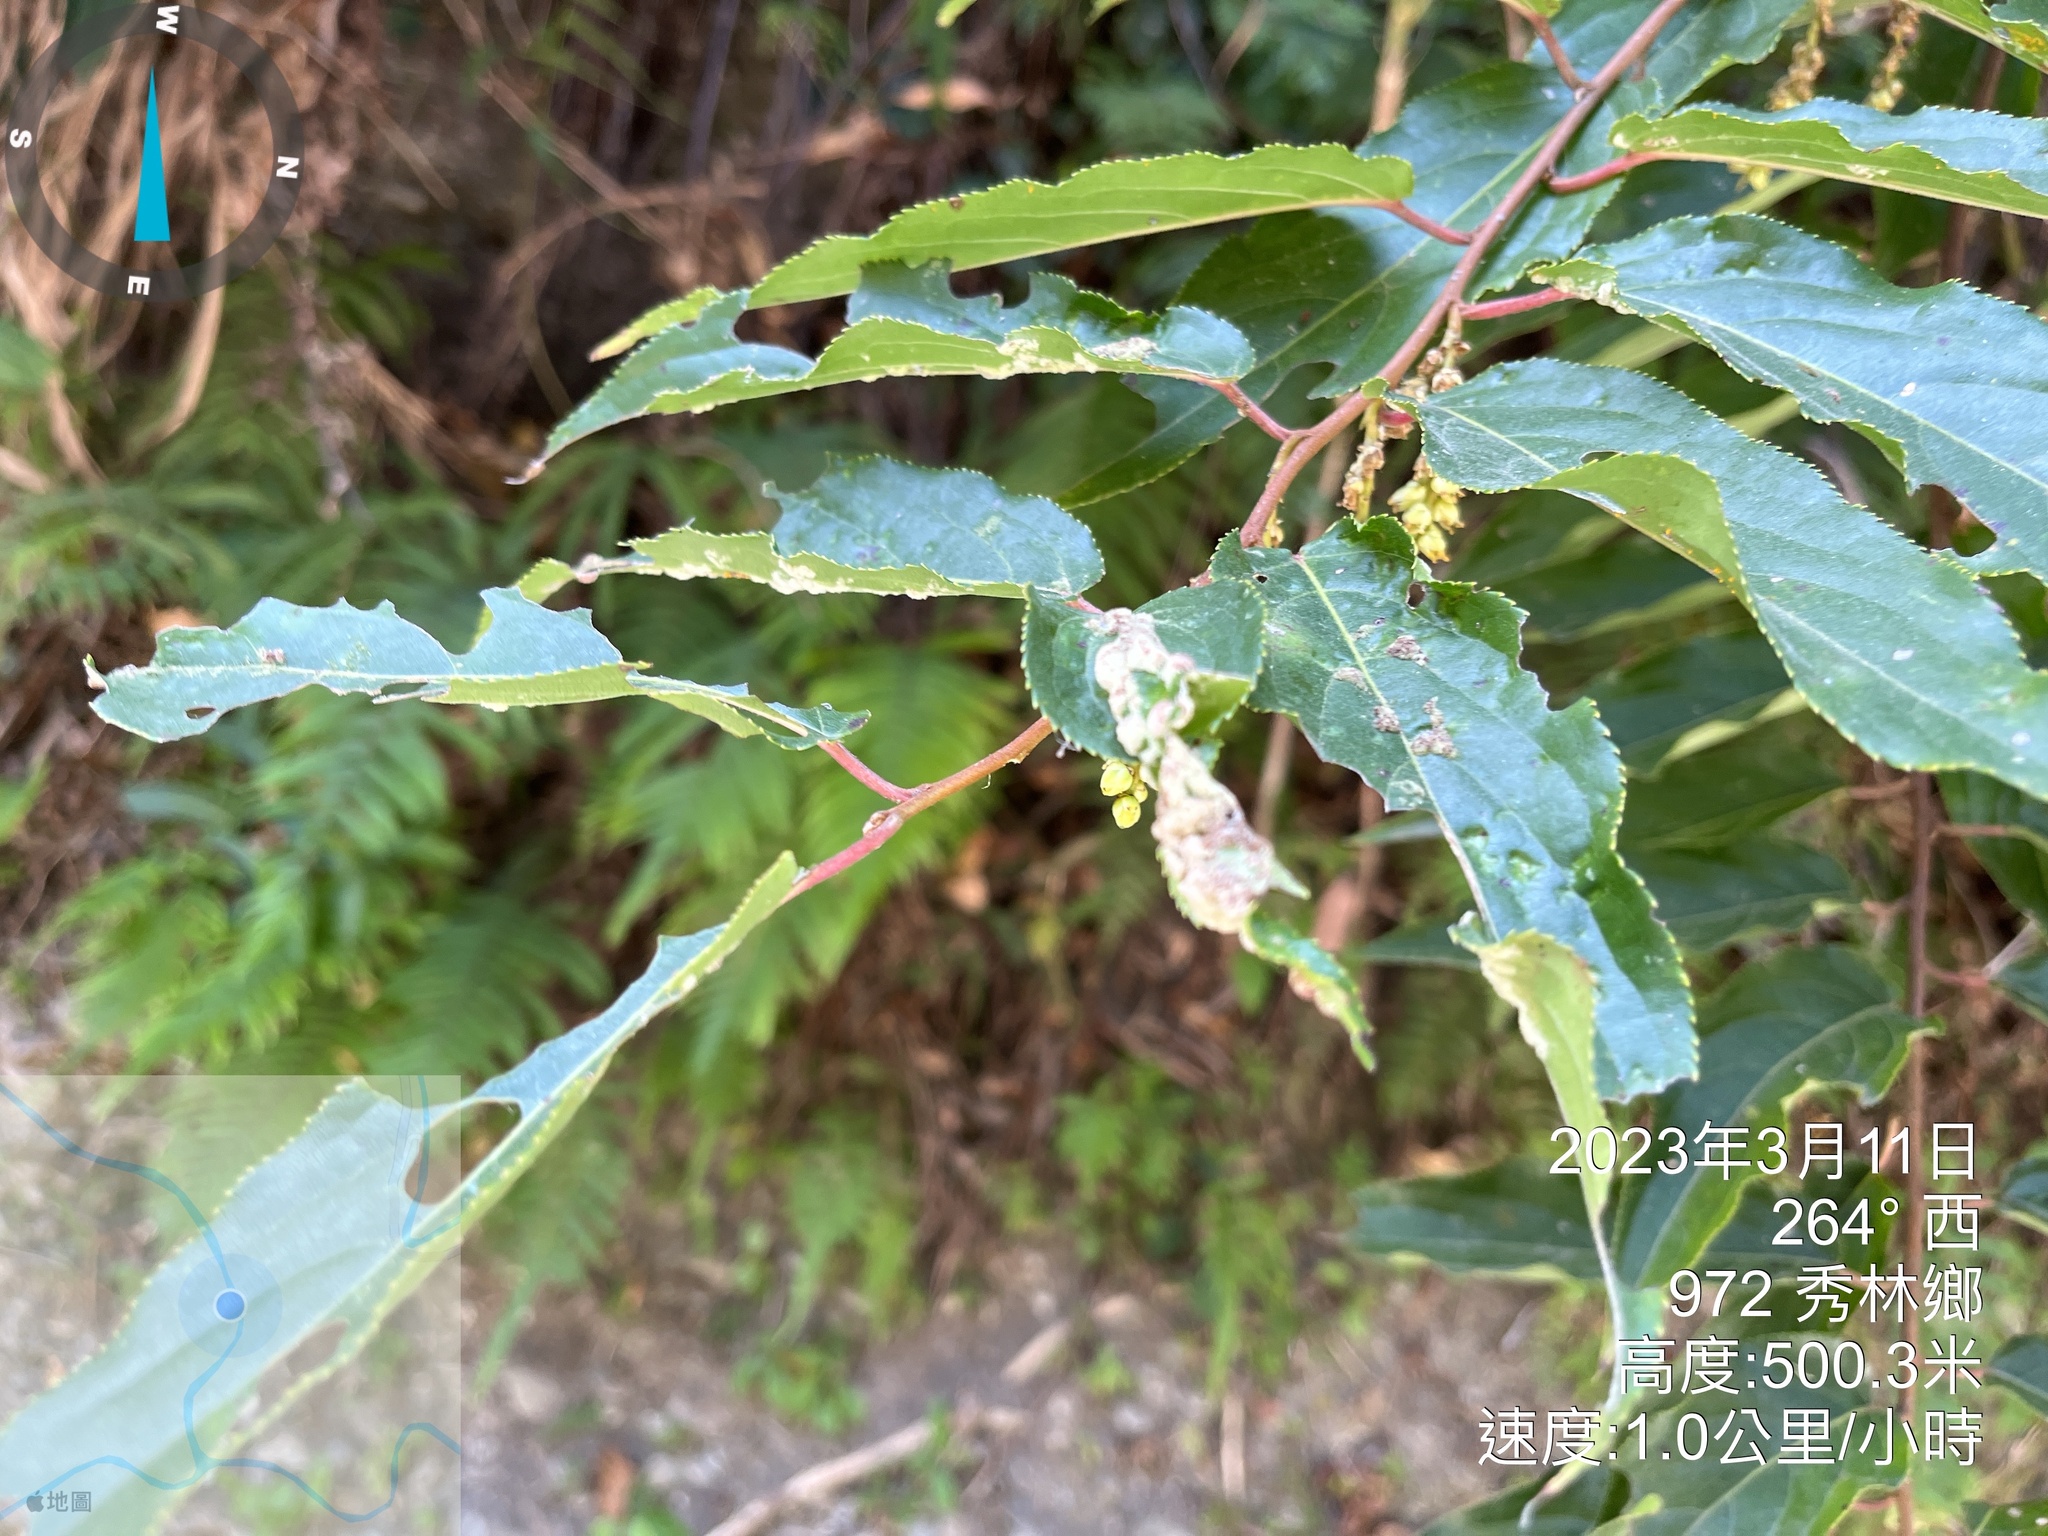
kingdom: Plantae
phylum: Tracheophyta
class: Magnoliopsida
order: Crossosomatales
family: Stachyuraceae
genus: Stachyurus
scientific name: Stachyurus himalaicus
